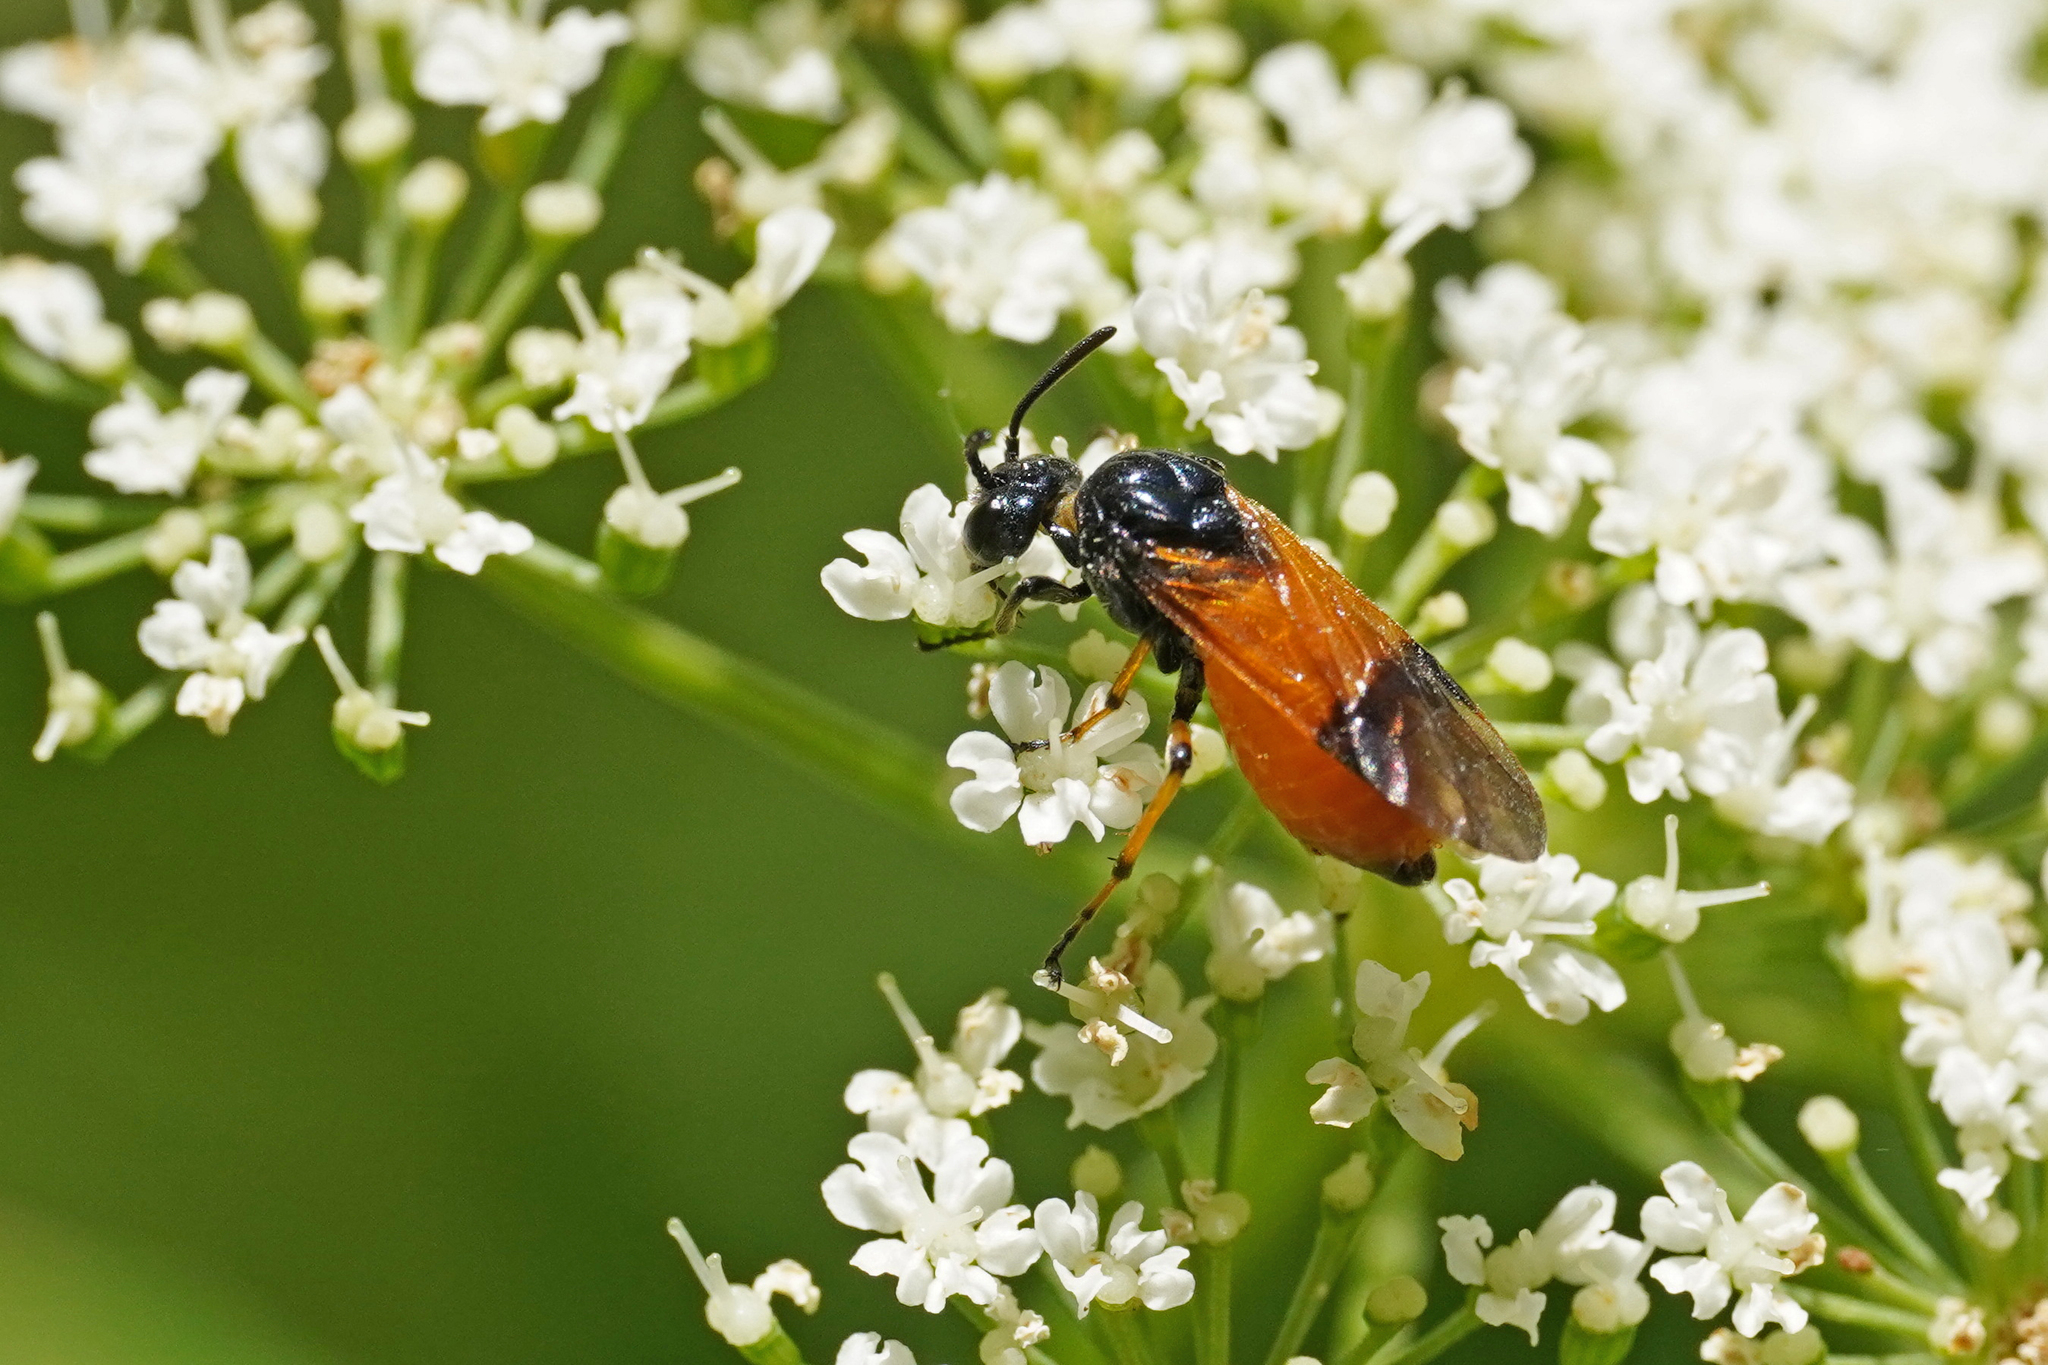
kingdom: Animalia
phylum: Arthropoda
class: Insecta
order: Hymenoptera
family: Argidae
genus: Arge
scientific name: Arge cyanocrocea
